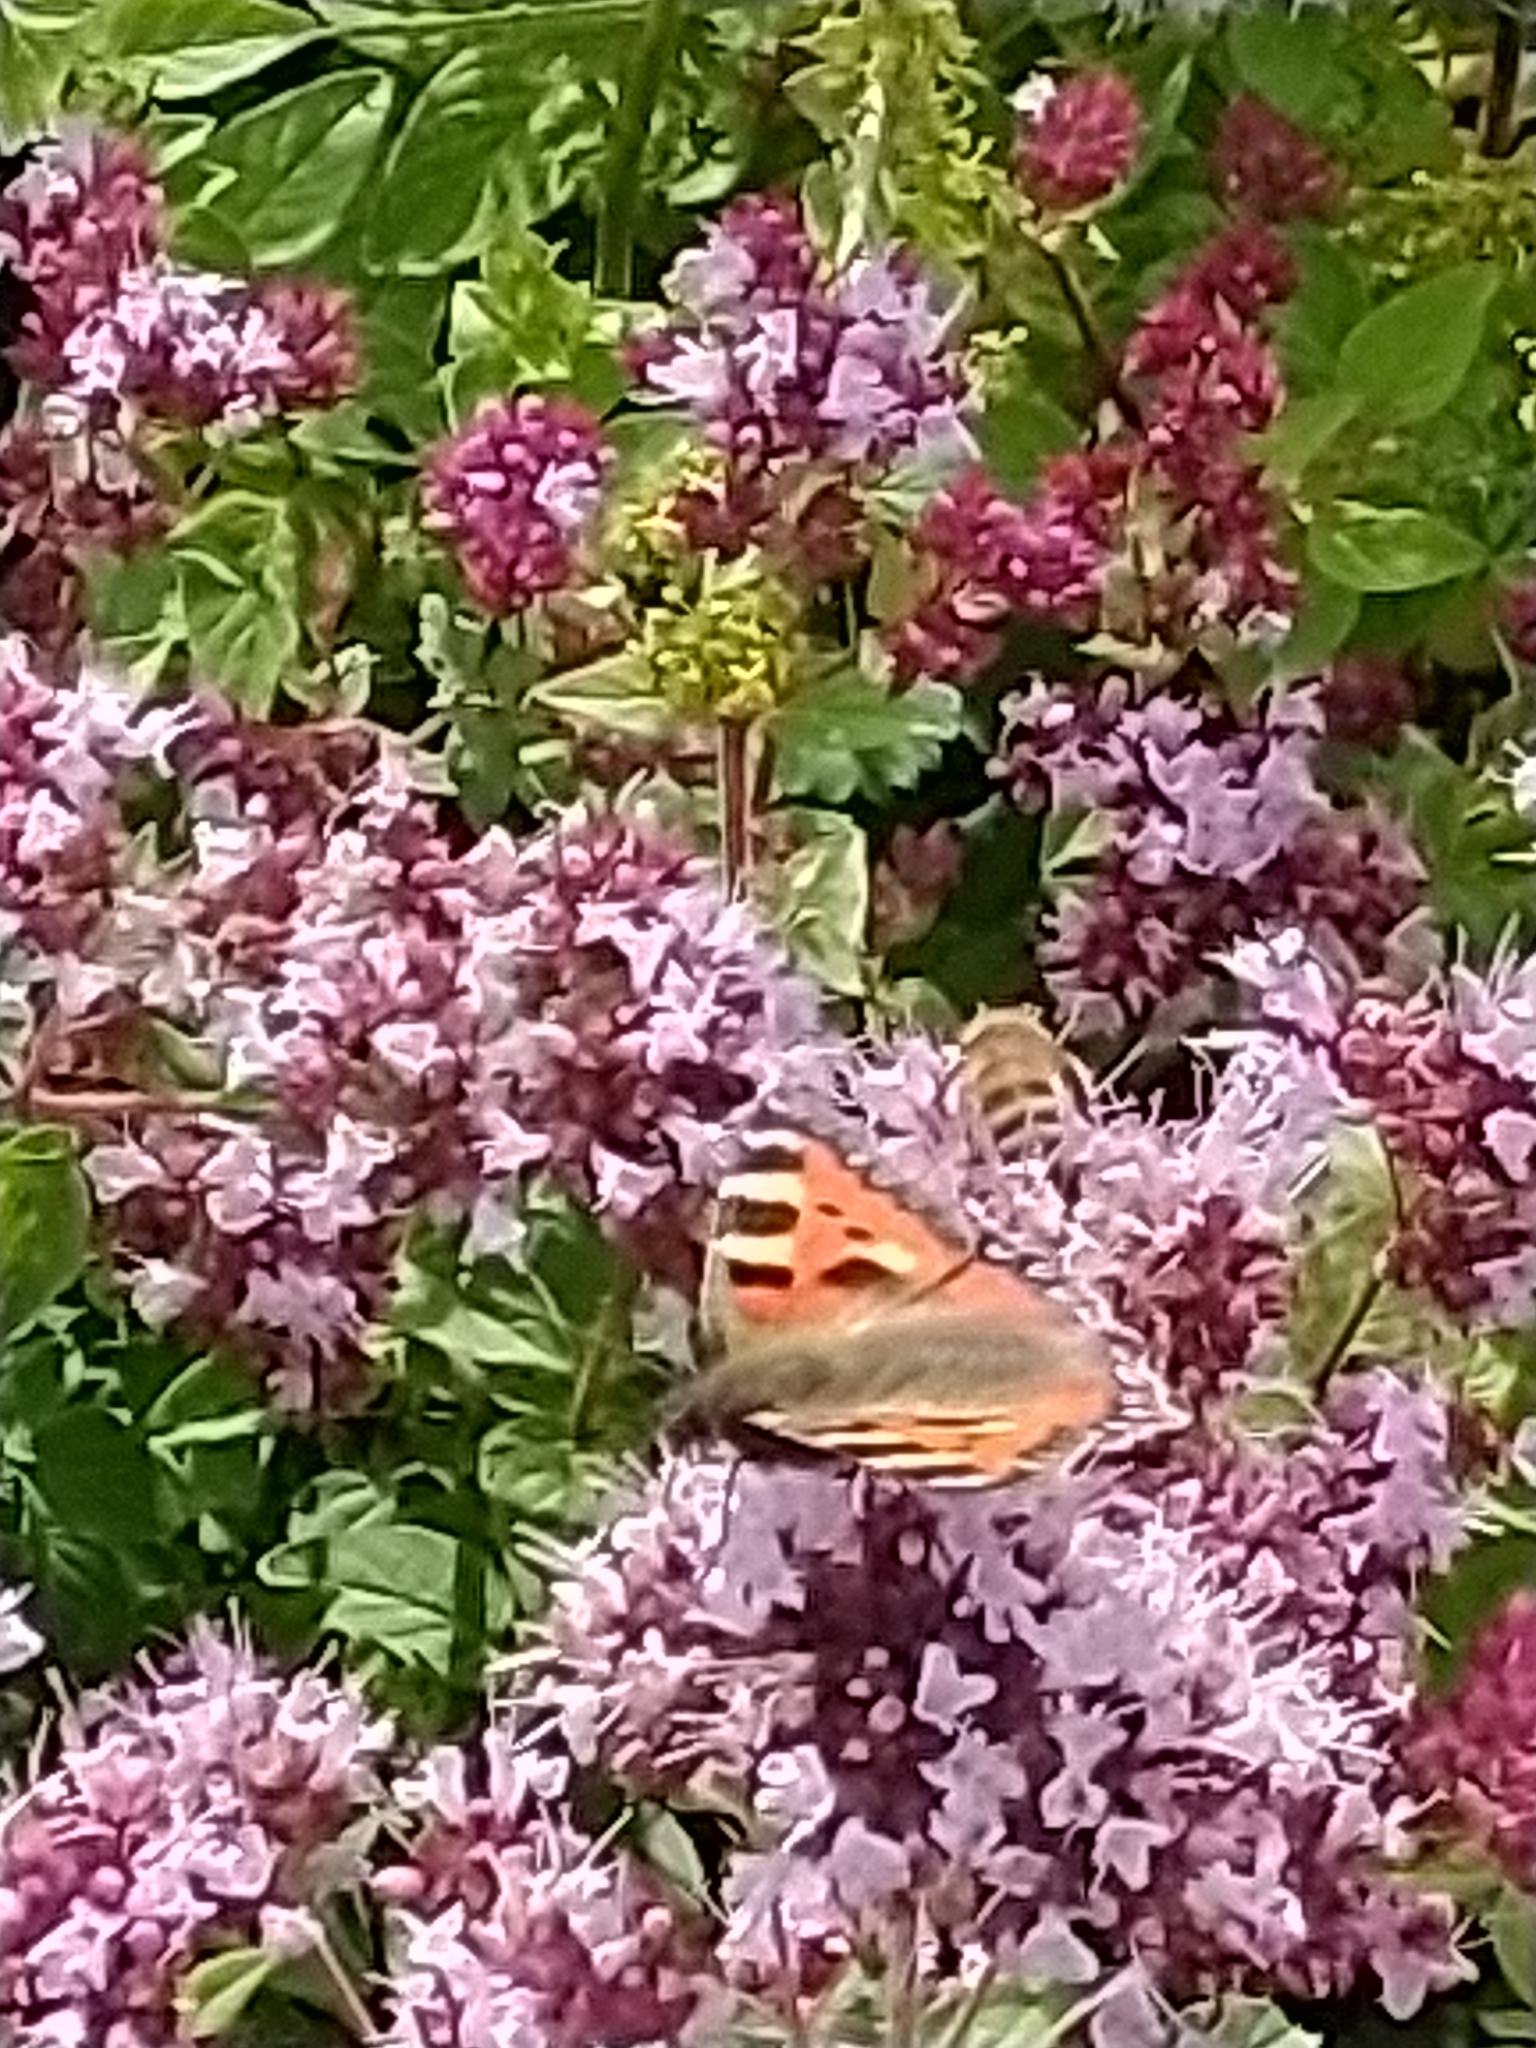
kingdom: Animalia
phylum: Arthropoda
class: Insecta
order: Lepidoptera
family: Nymphalidae
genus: Aglais
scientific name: Aglais urticae
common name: Small tortoiseshell
